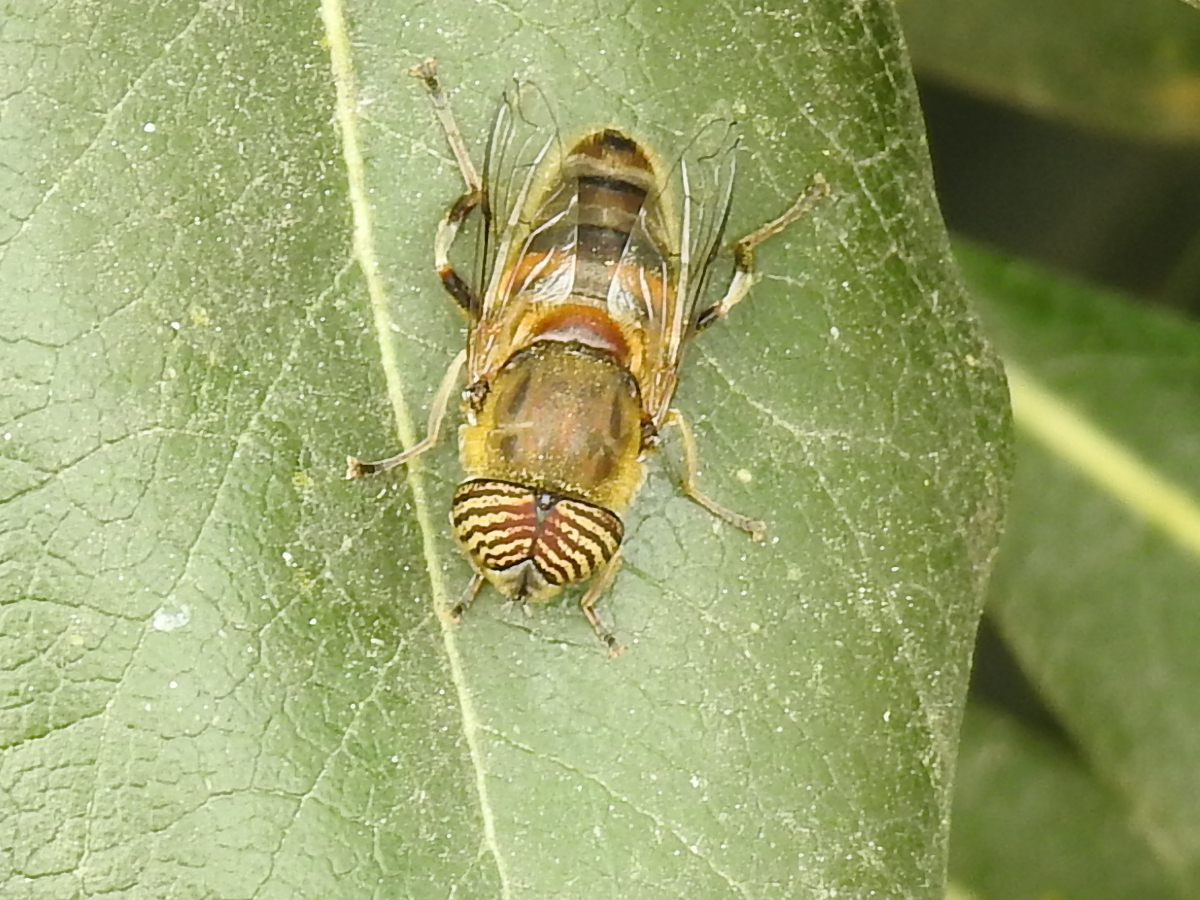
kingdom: Animalia
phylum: Arthropoda
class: Insecta
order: Diptera
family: Syrphidae
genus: Eristalinus
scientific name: Eristalinus taeniops
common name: Syrphid fly
